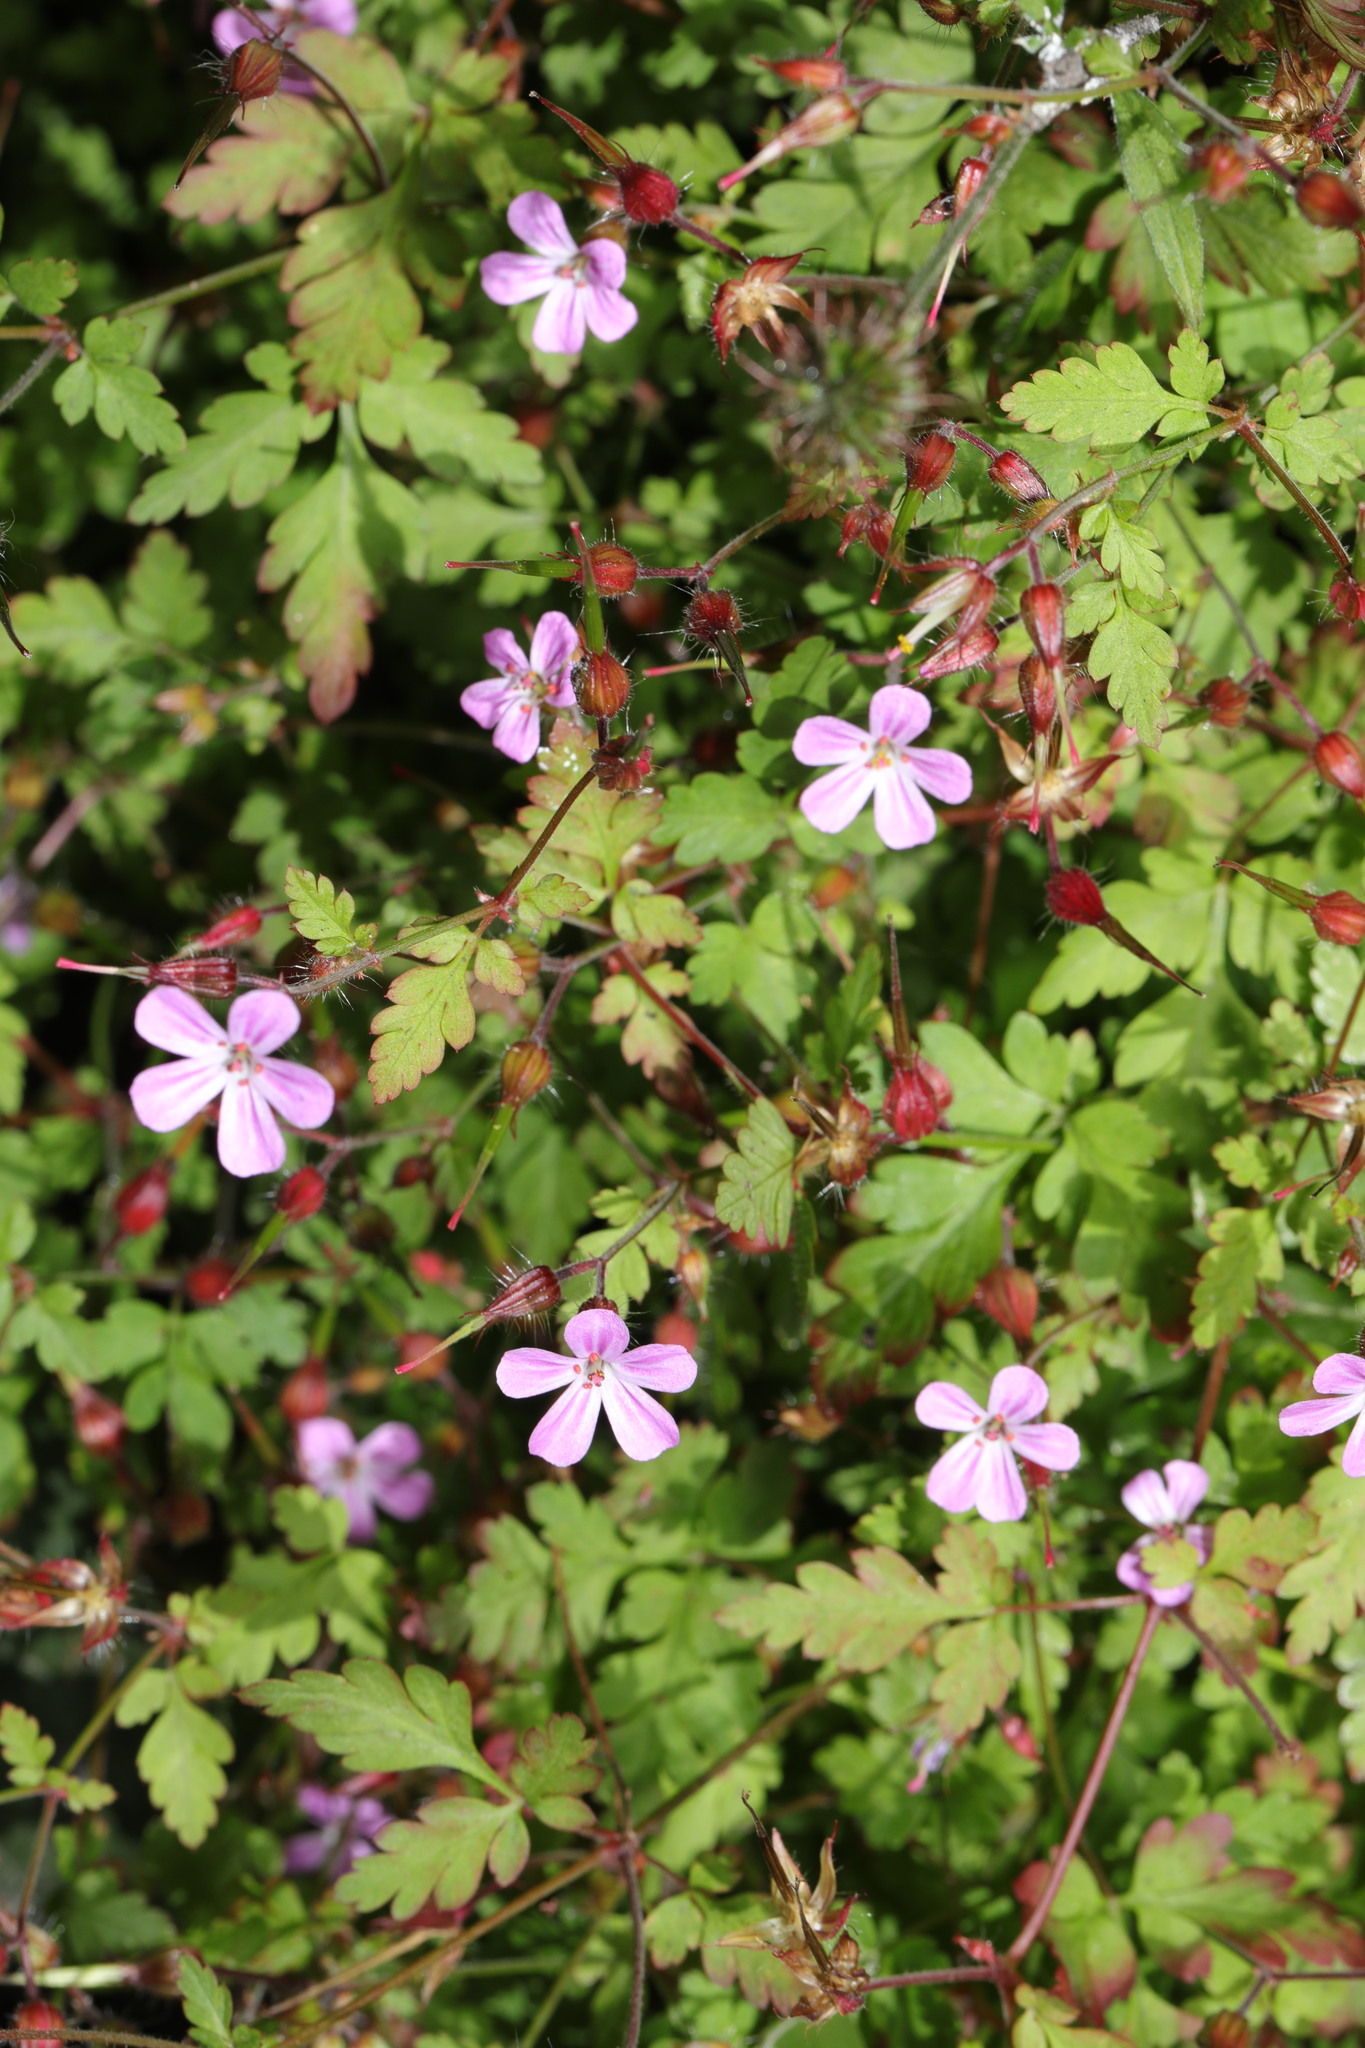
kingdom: Plantae
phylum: Tracheophyta
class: Magnoliopsida
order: Geraniales
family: Geraniaceae
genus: Geranium
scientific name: Geranium robertianum
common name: Herb-robert
